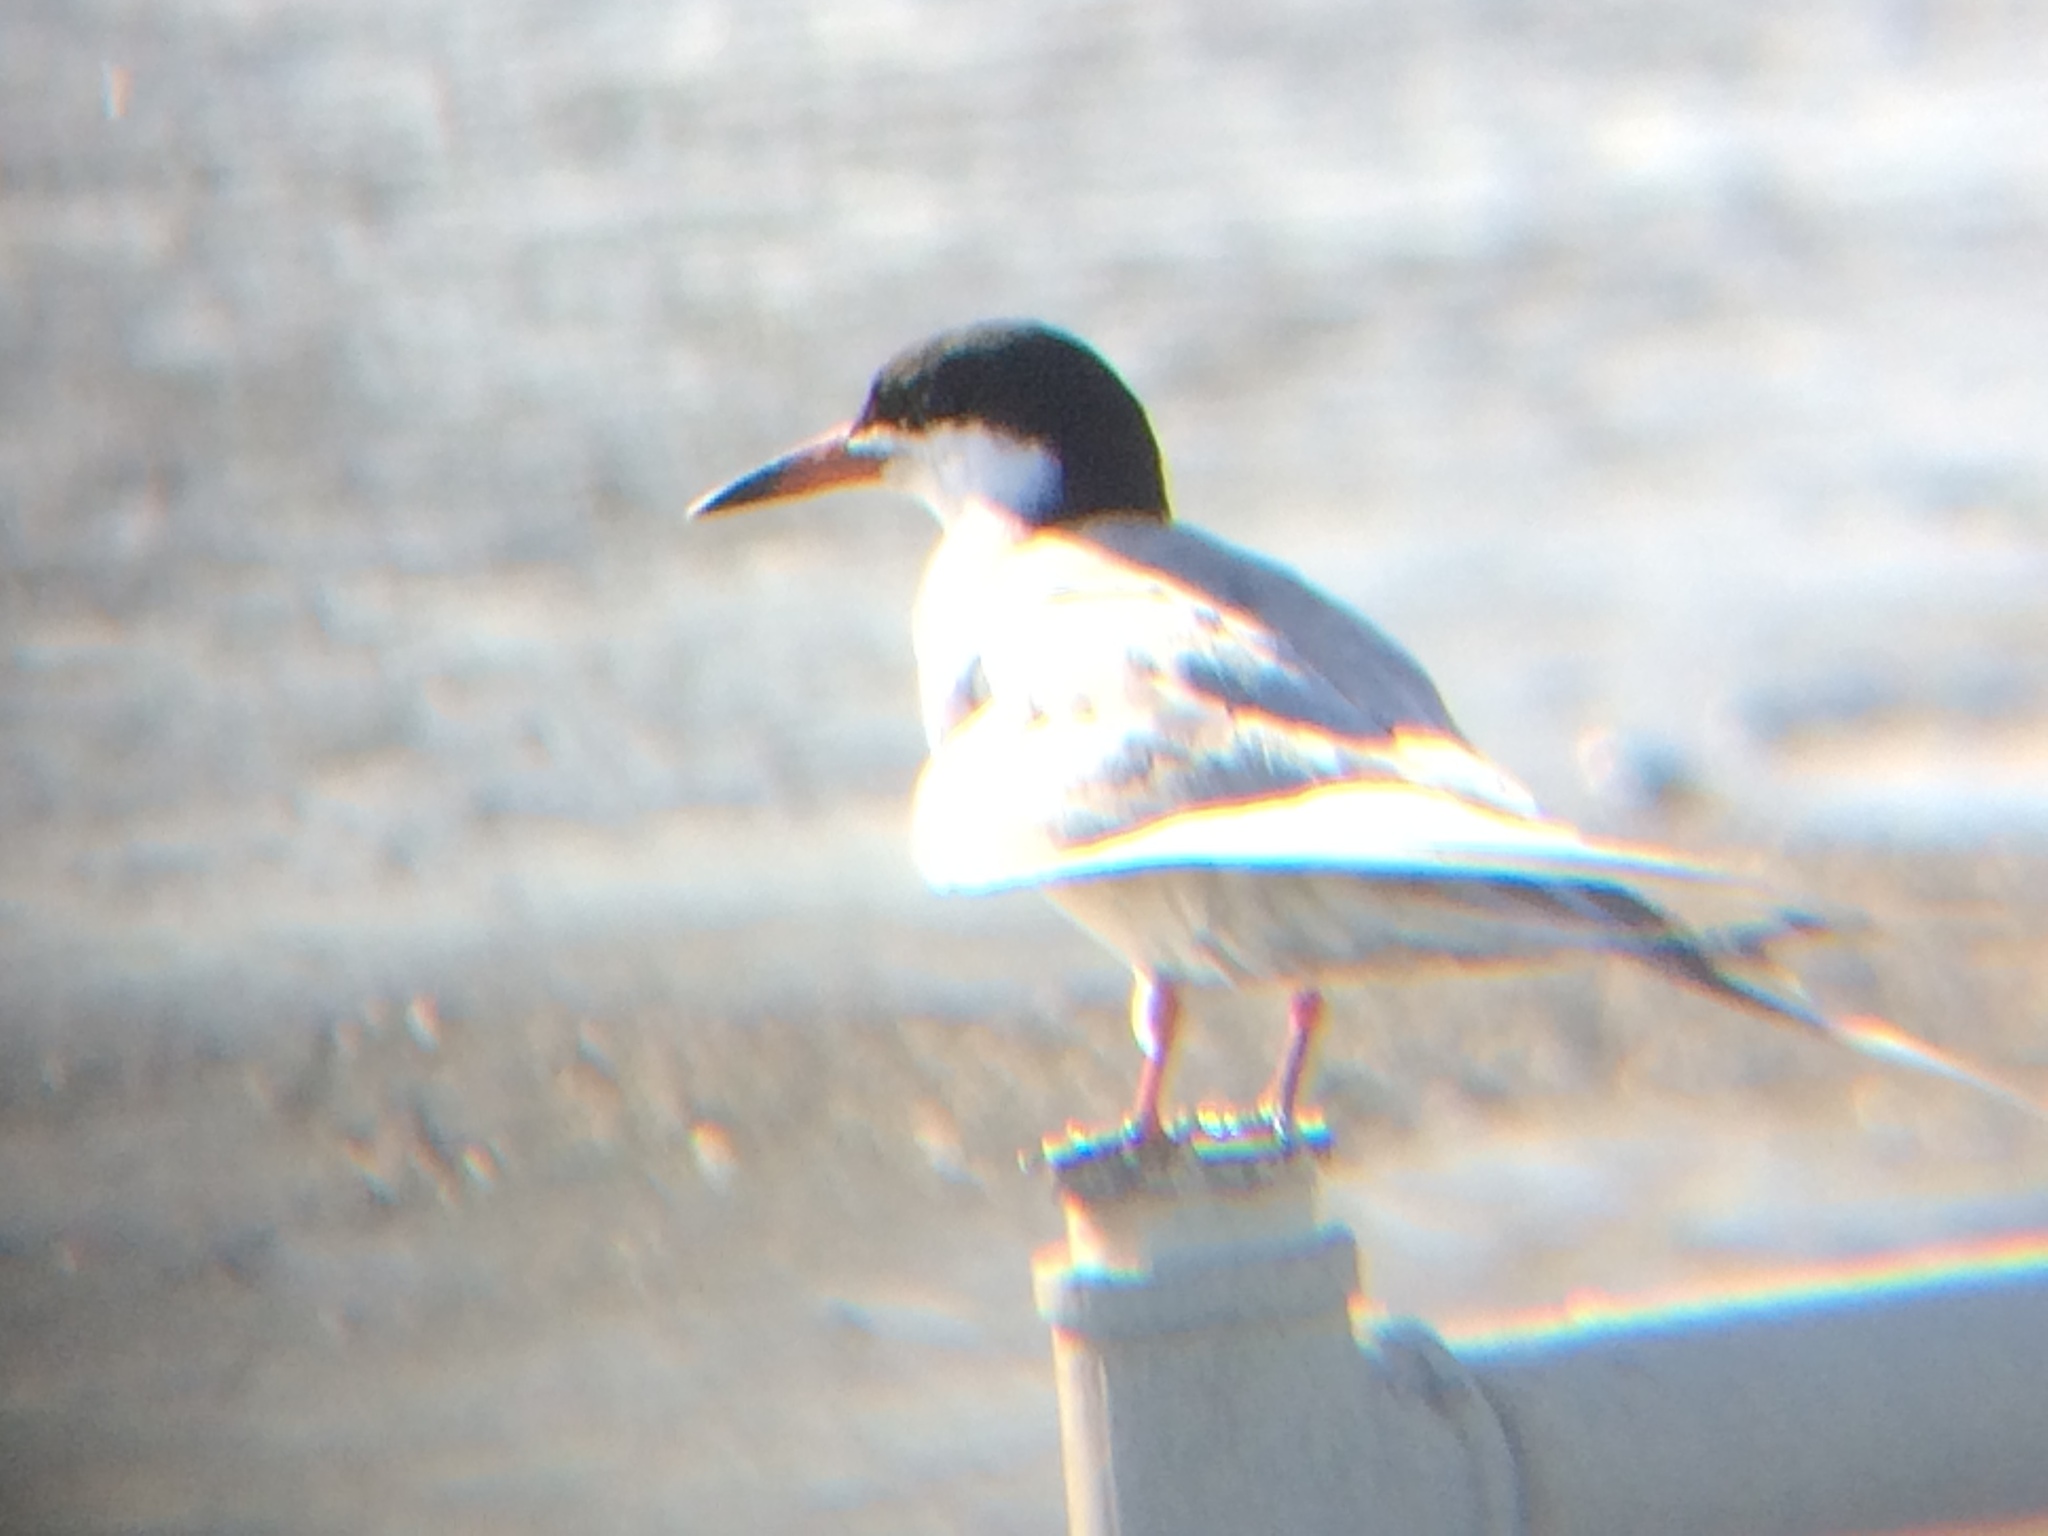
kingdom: Animalia
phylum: Chordata
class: Aves
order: Charadriiformes
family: Laridae
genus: Sterna
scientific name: Sterna forsteri
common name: Forster's tern
